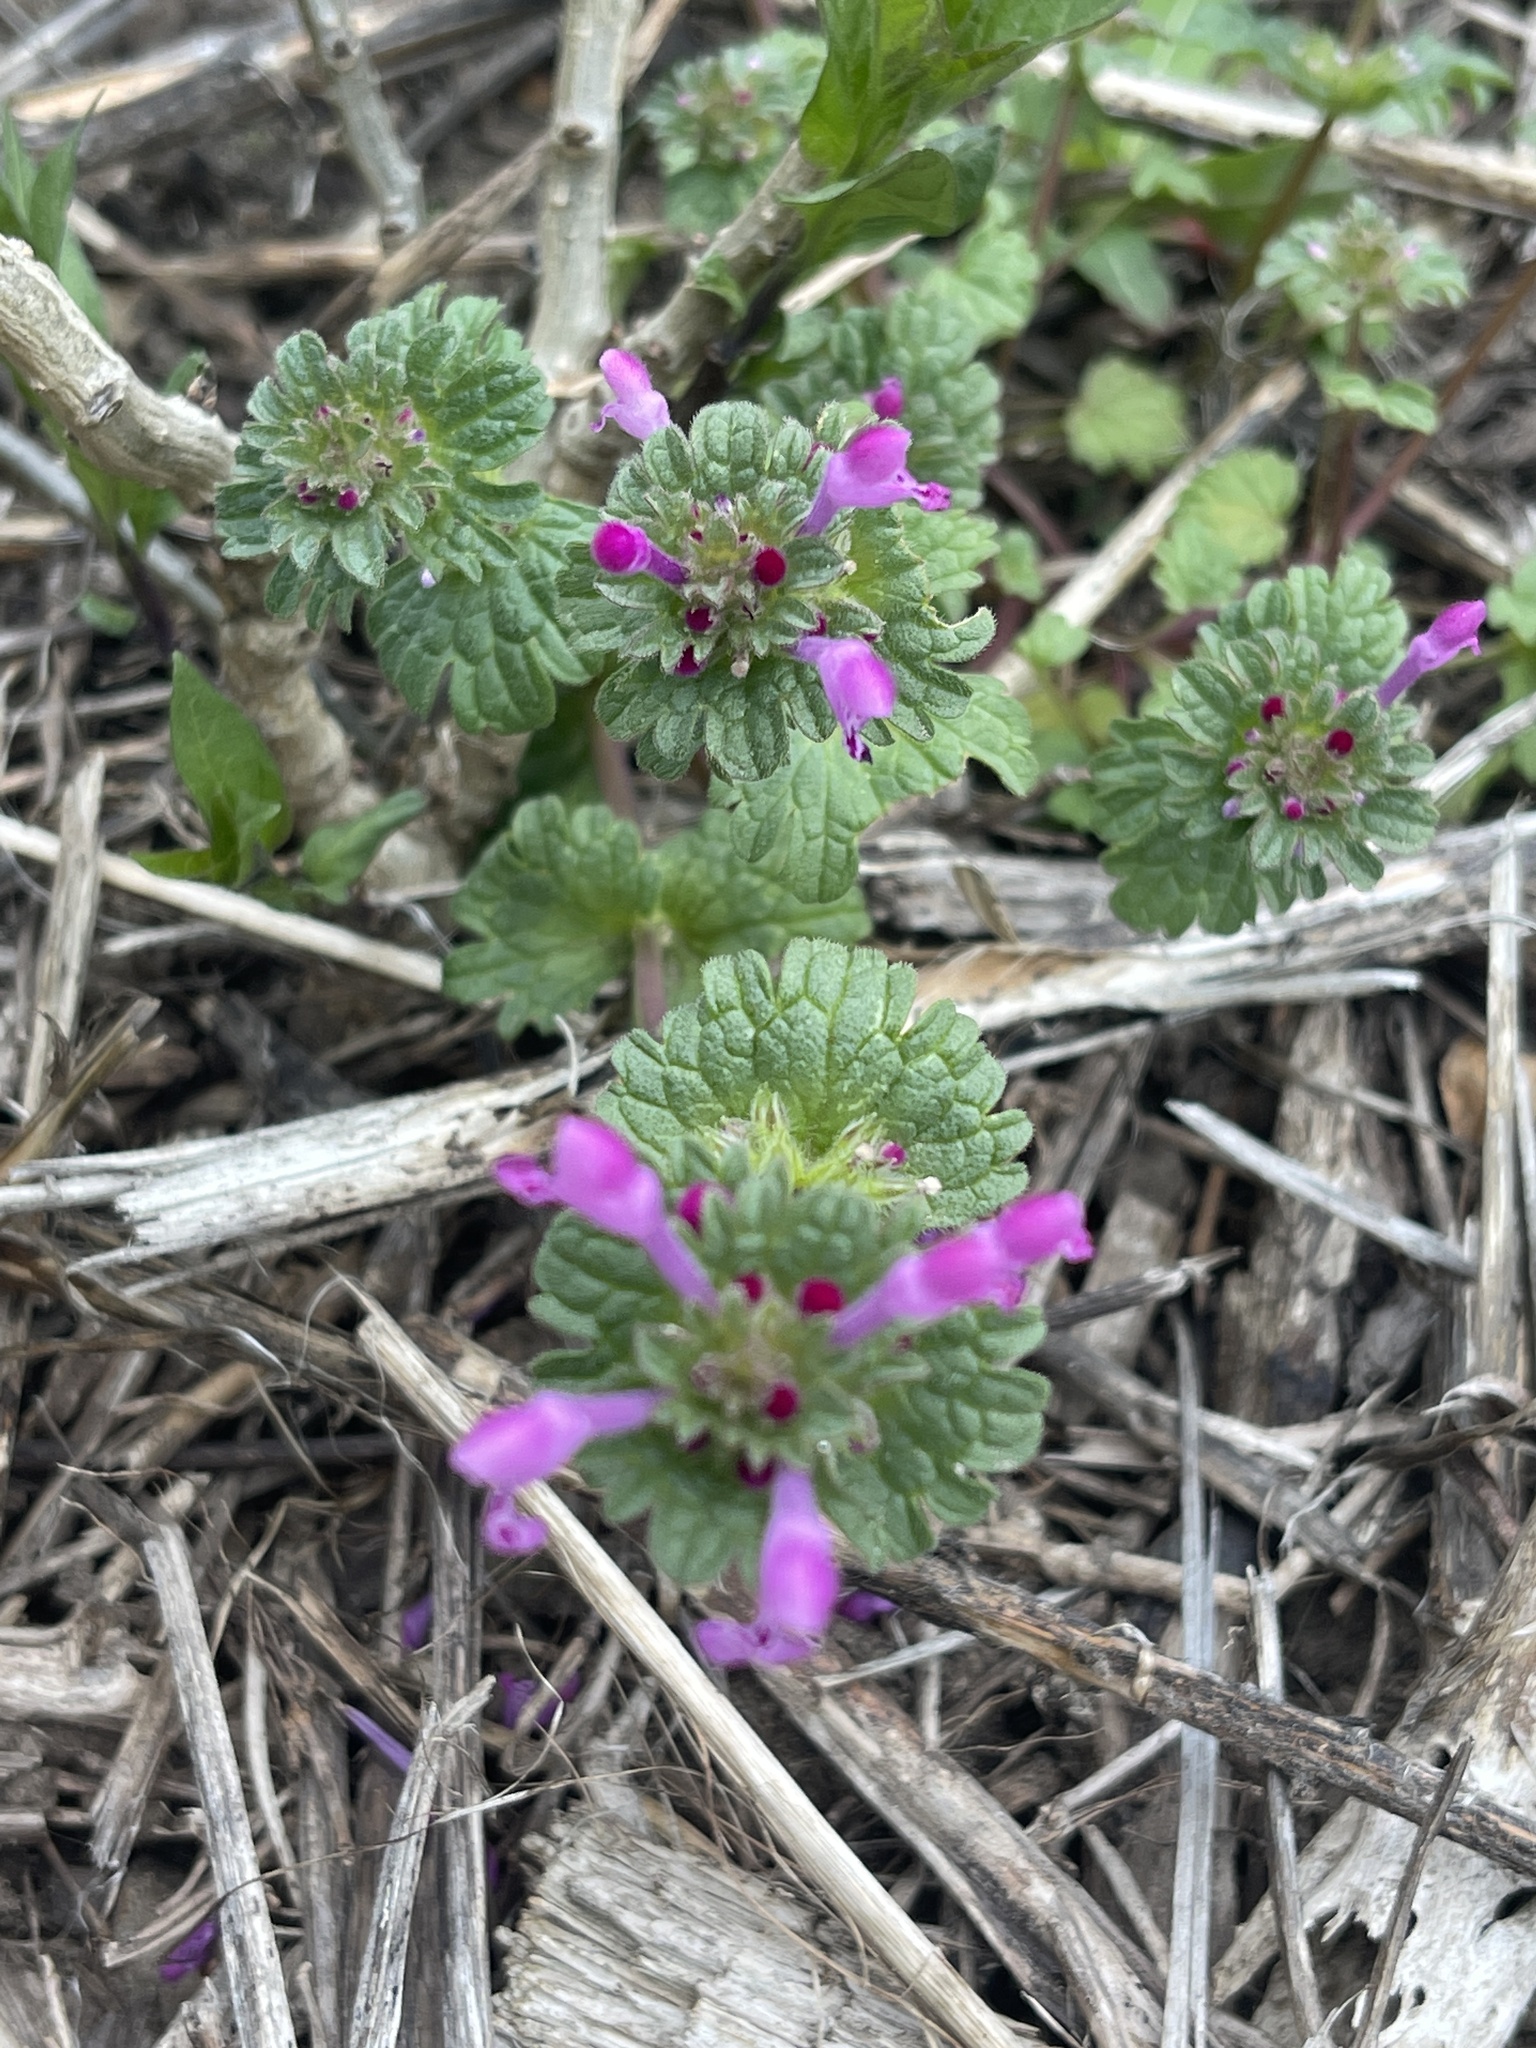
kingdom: Plantae
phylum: Tracheophyta
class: Magnoliopsida
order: Lamiales
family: Lamiaceae
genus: Lamium
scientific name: Lamium amplexicaule
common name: Henbit dead-nettle
